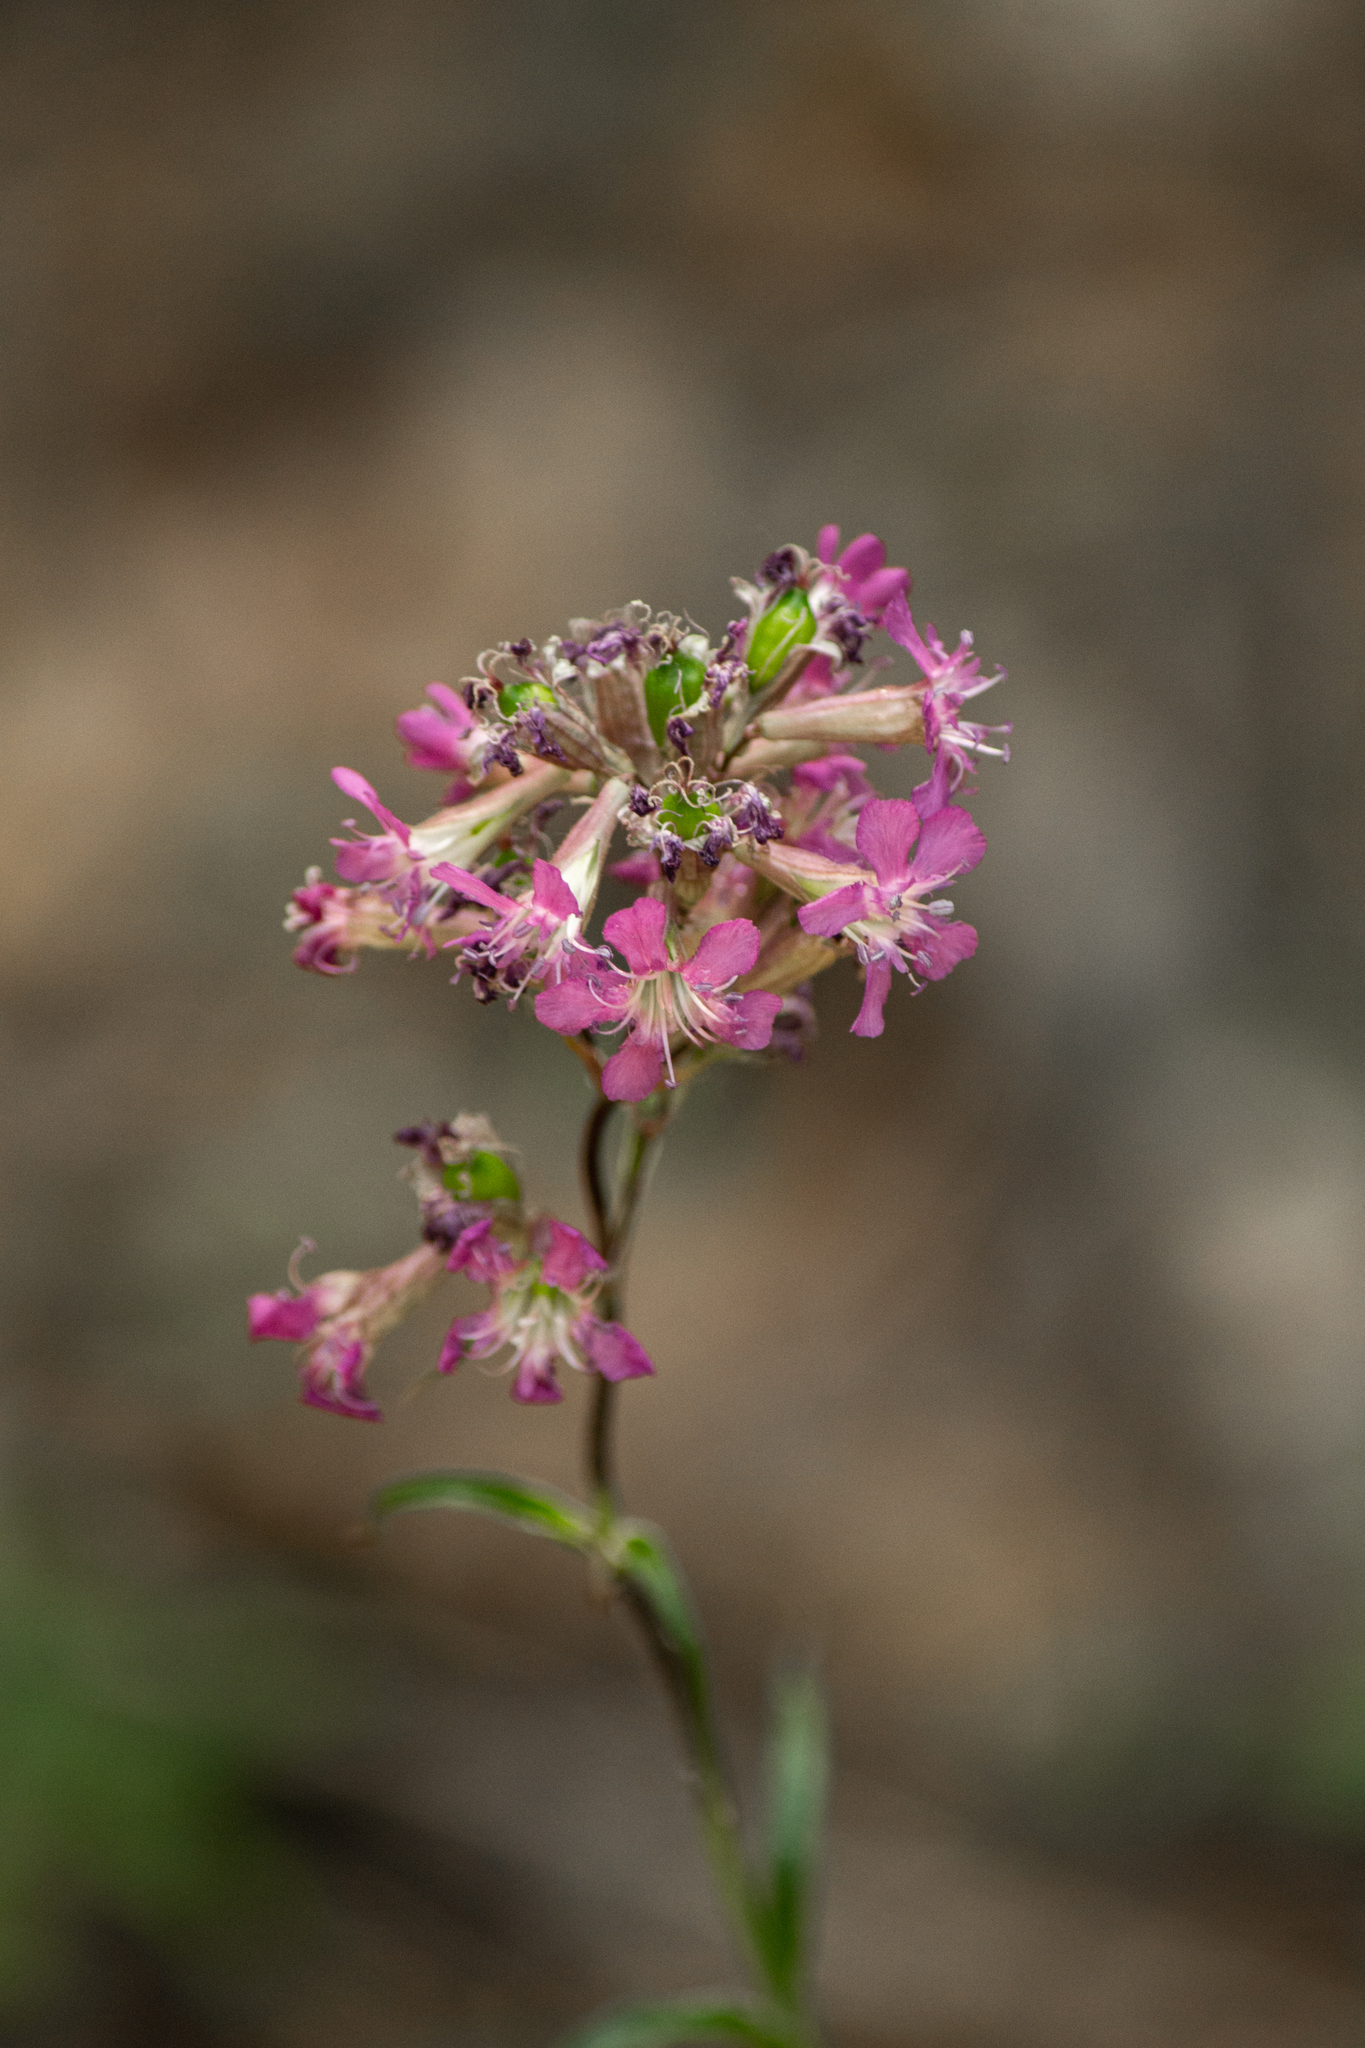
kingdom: Plantae
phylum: Tracheophyta
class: Magnoliopsida
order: Caryophyllales
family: Caryophyllaceae
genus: Viscaria
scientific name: Viscaria vulgaris
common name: Clammy campion
